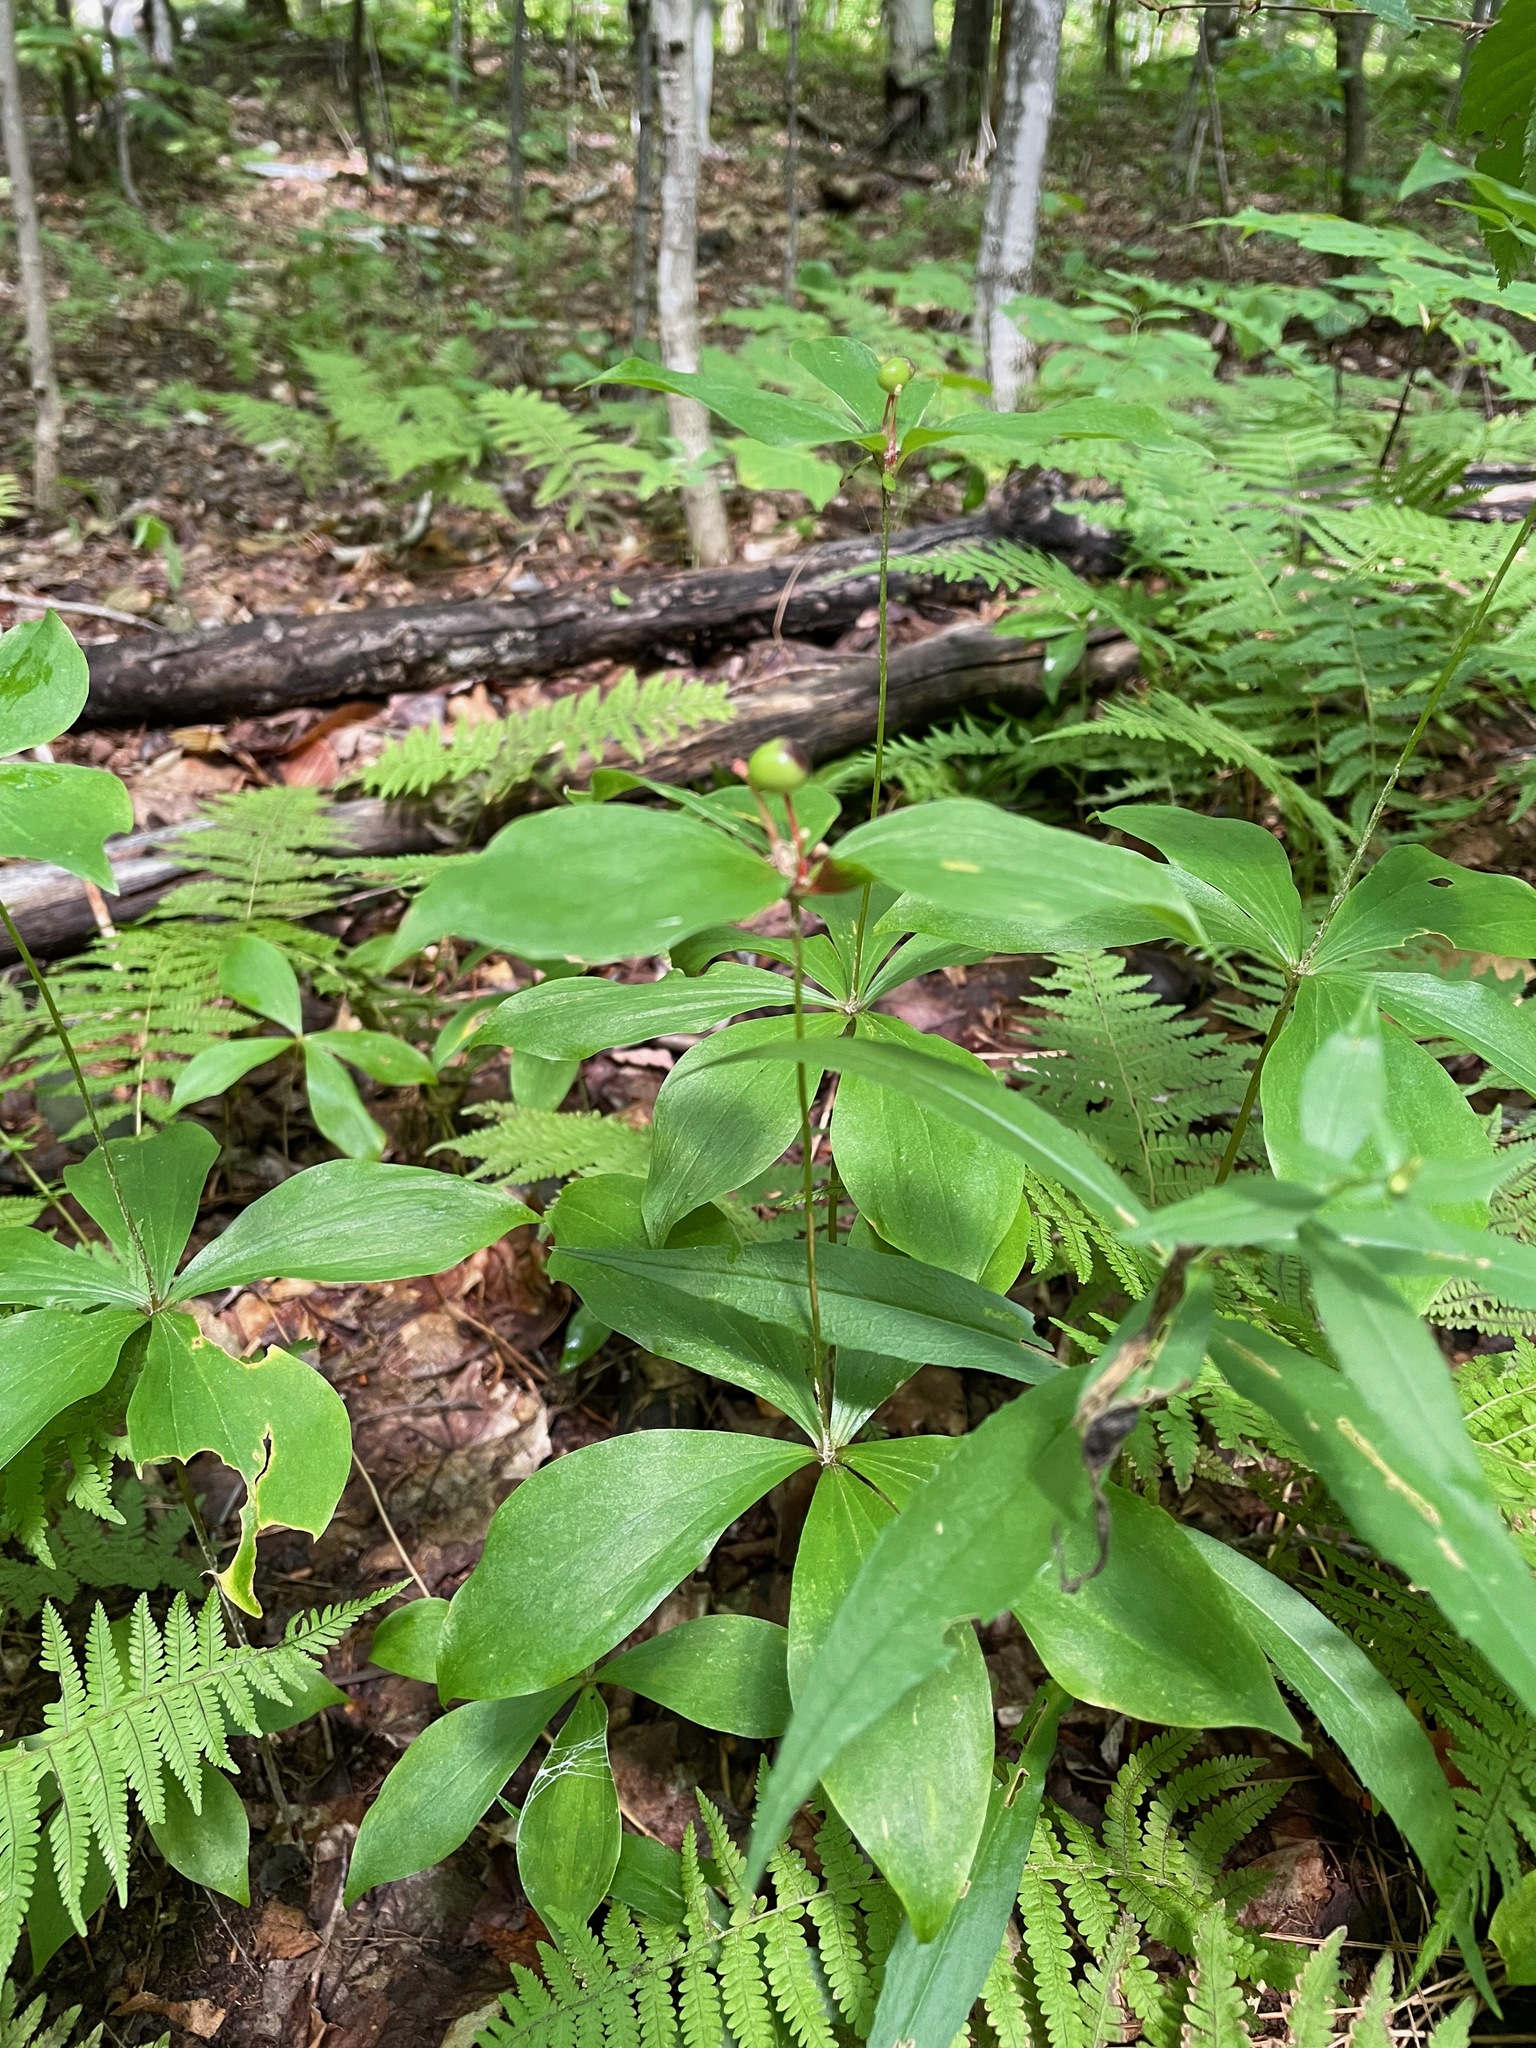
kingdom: Plantae
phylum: Tracheophyta
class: Liliopsida
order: Liliales
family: Liliaceae
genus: Medeola
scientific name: Medeola virginiana
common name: Indian cucumber-root
